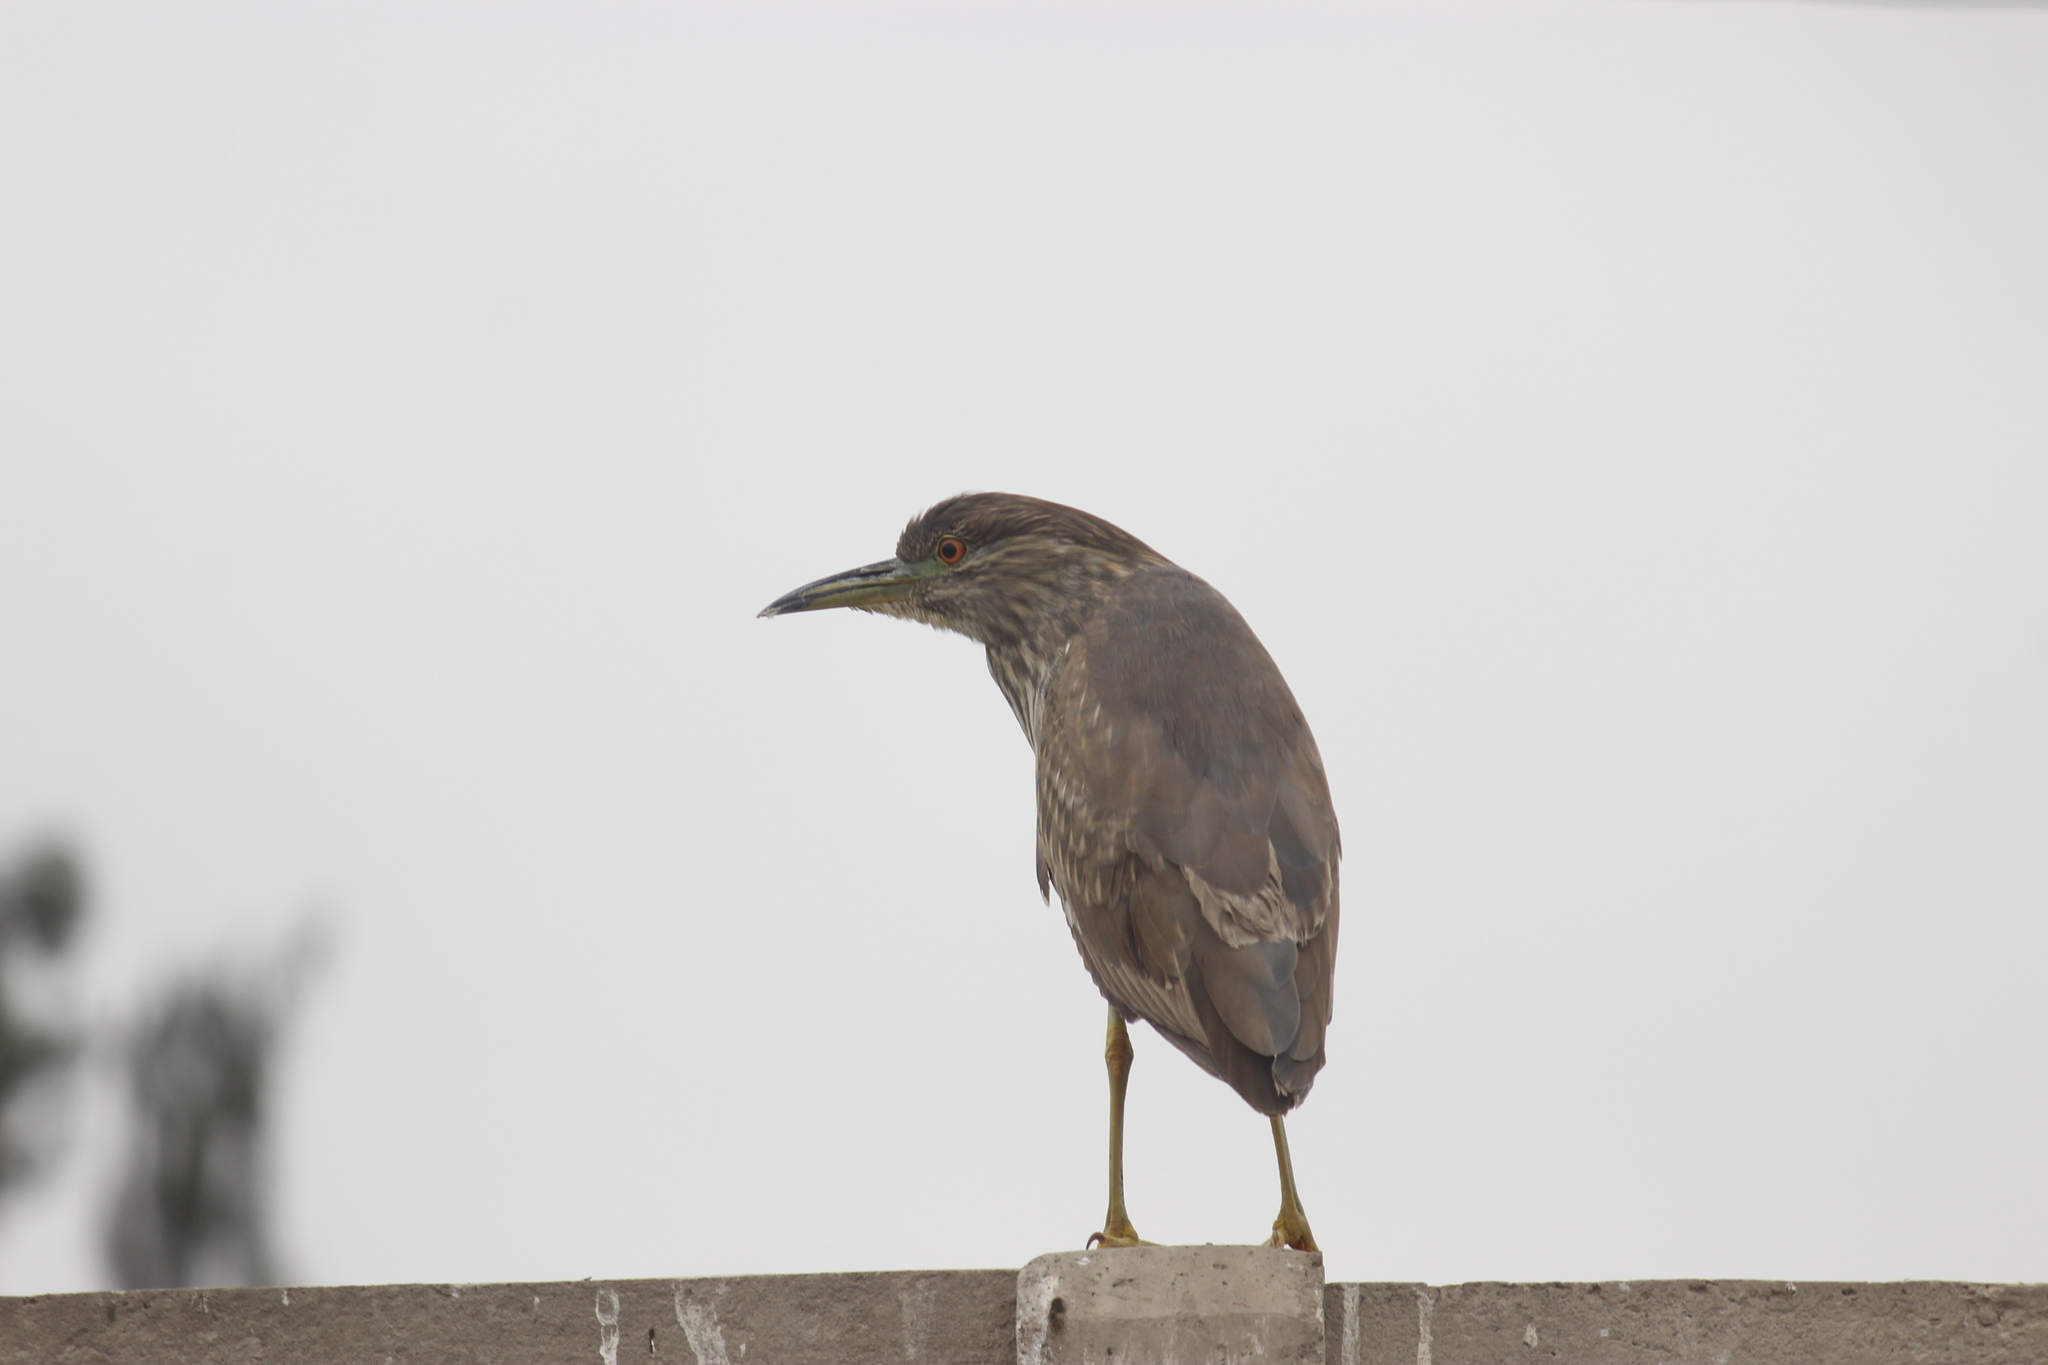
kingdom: Animalia
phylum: Chordata
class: Aves
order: Pelecaniformes
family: Ardeidae
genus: Nycticorax
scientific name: Nycticorax nycticorax
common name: Black-crowned night heron
